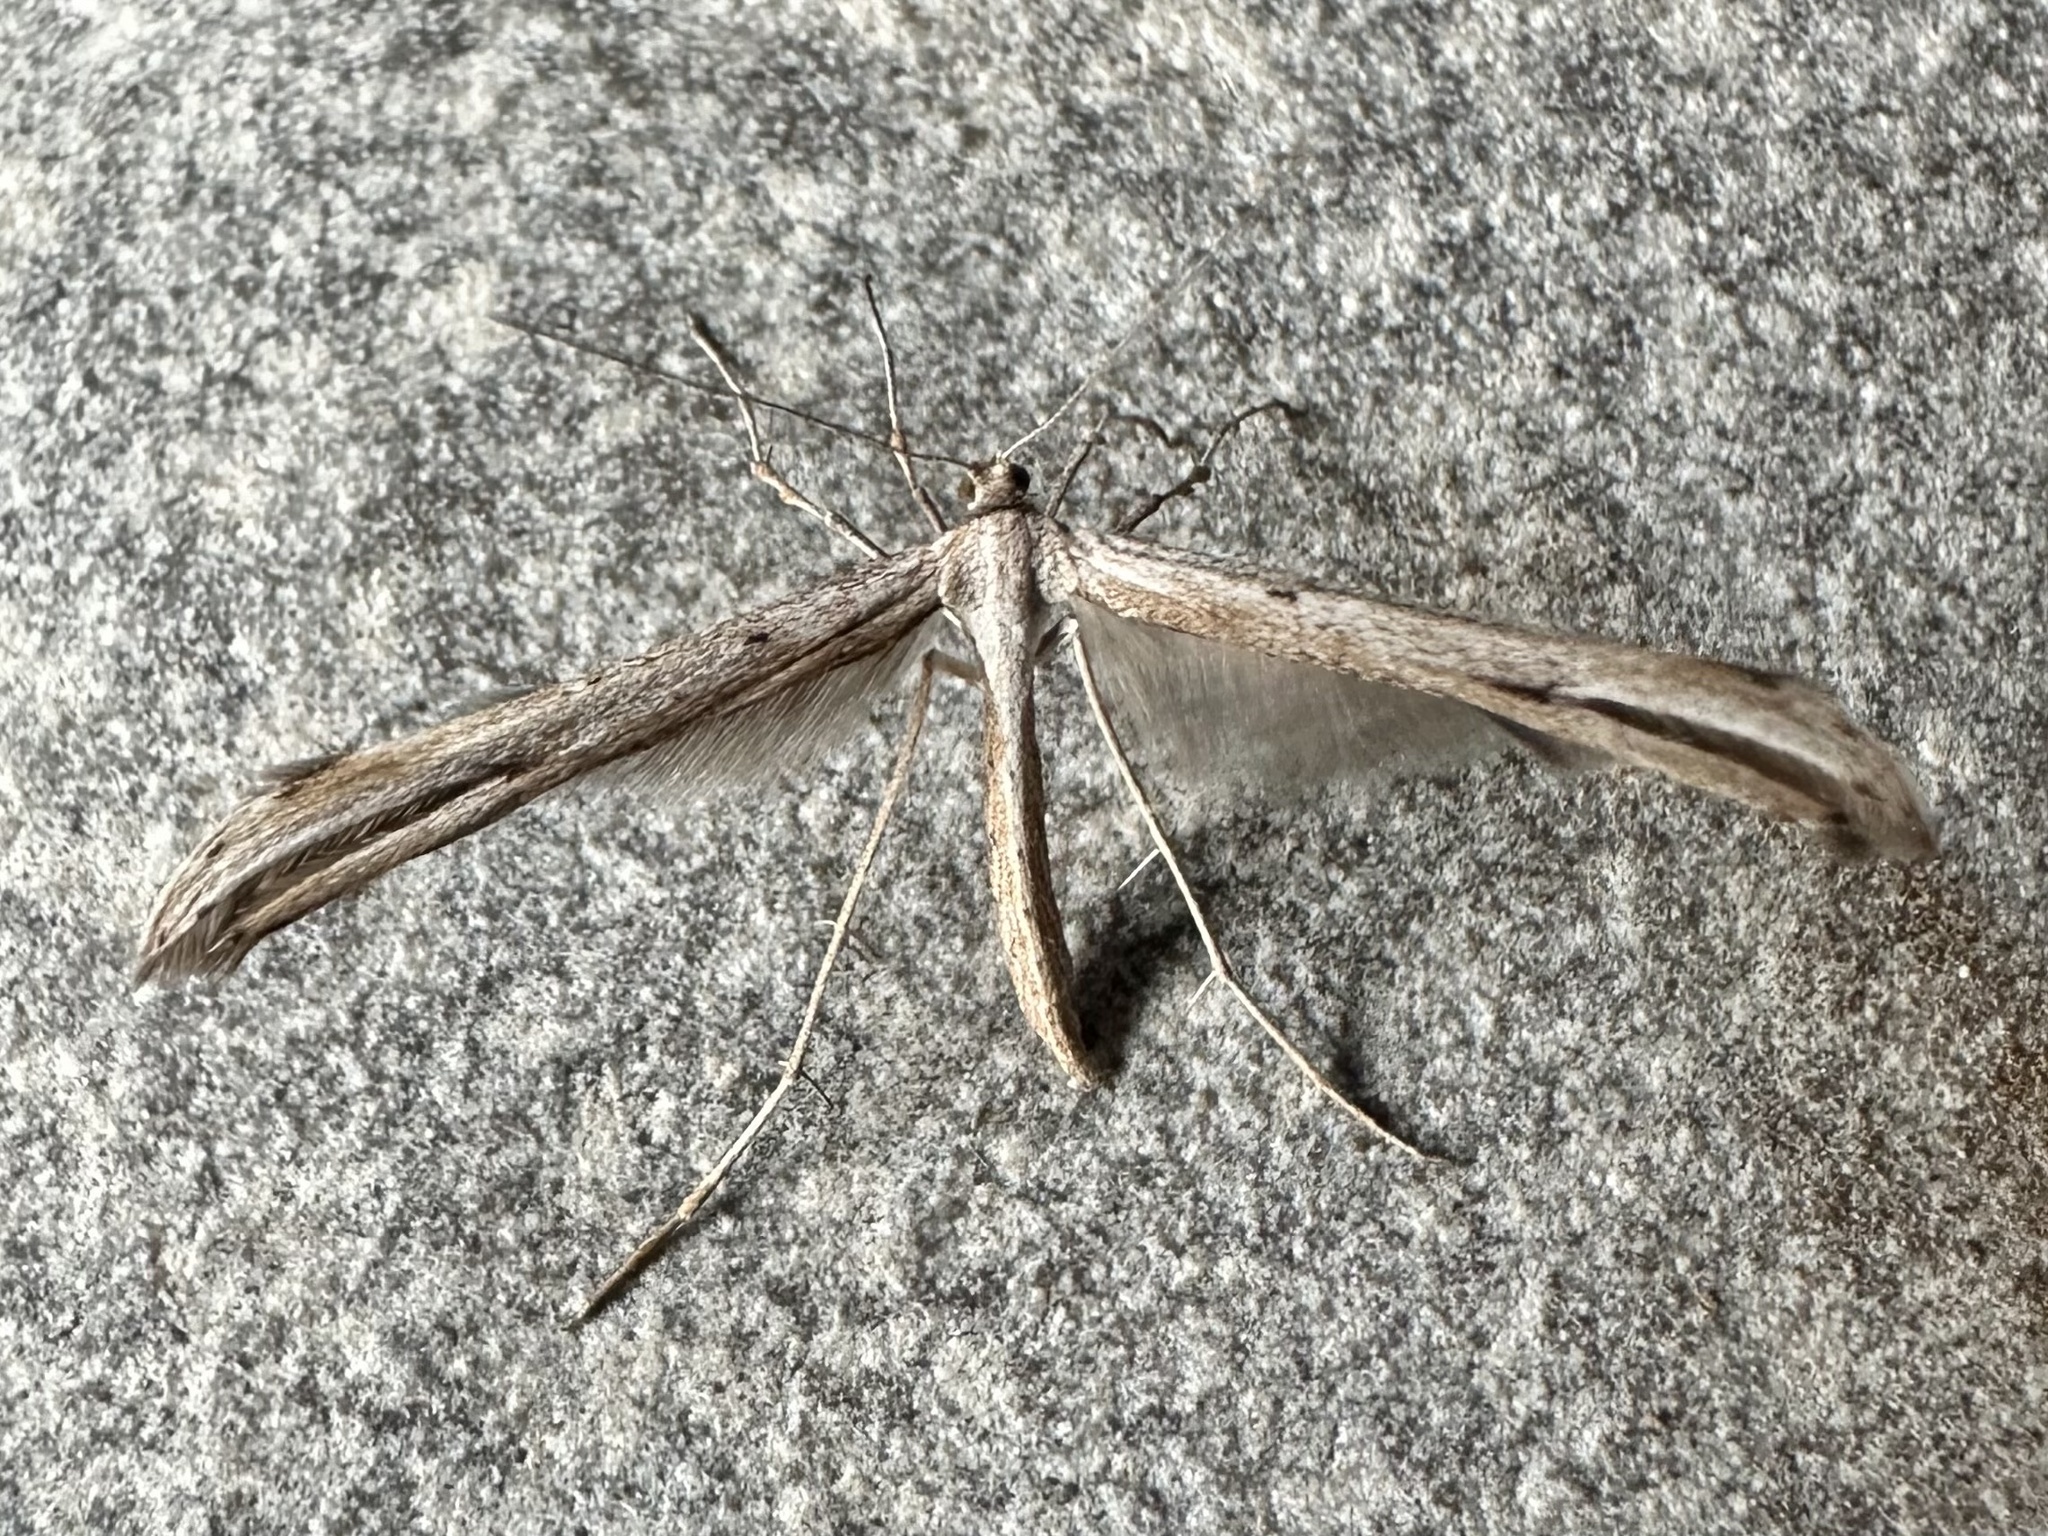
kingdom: Animalia
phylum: Arthropoda
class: Insecta
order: Lepidoptera
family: Pterophoridae
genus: Emmelina
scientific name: Emmelina monodactyla
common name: Common plume
